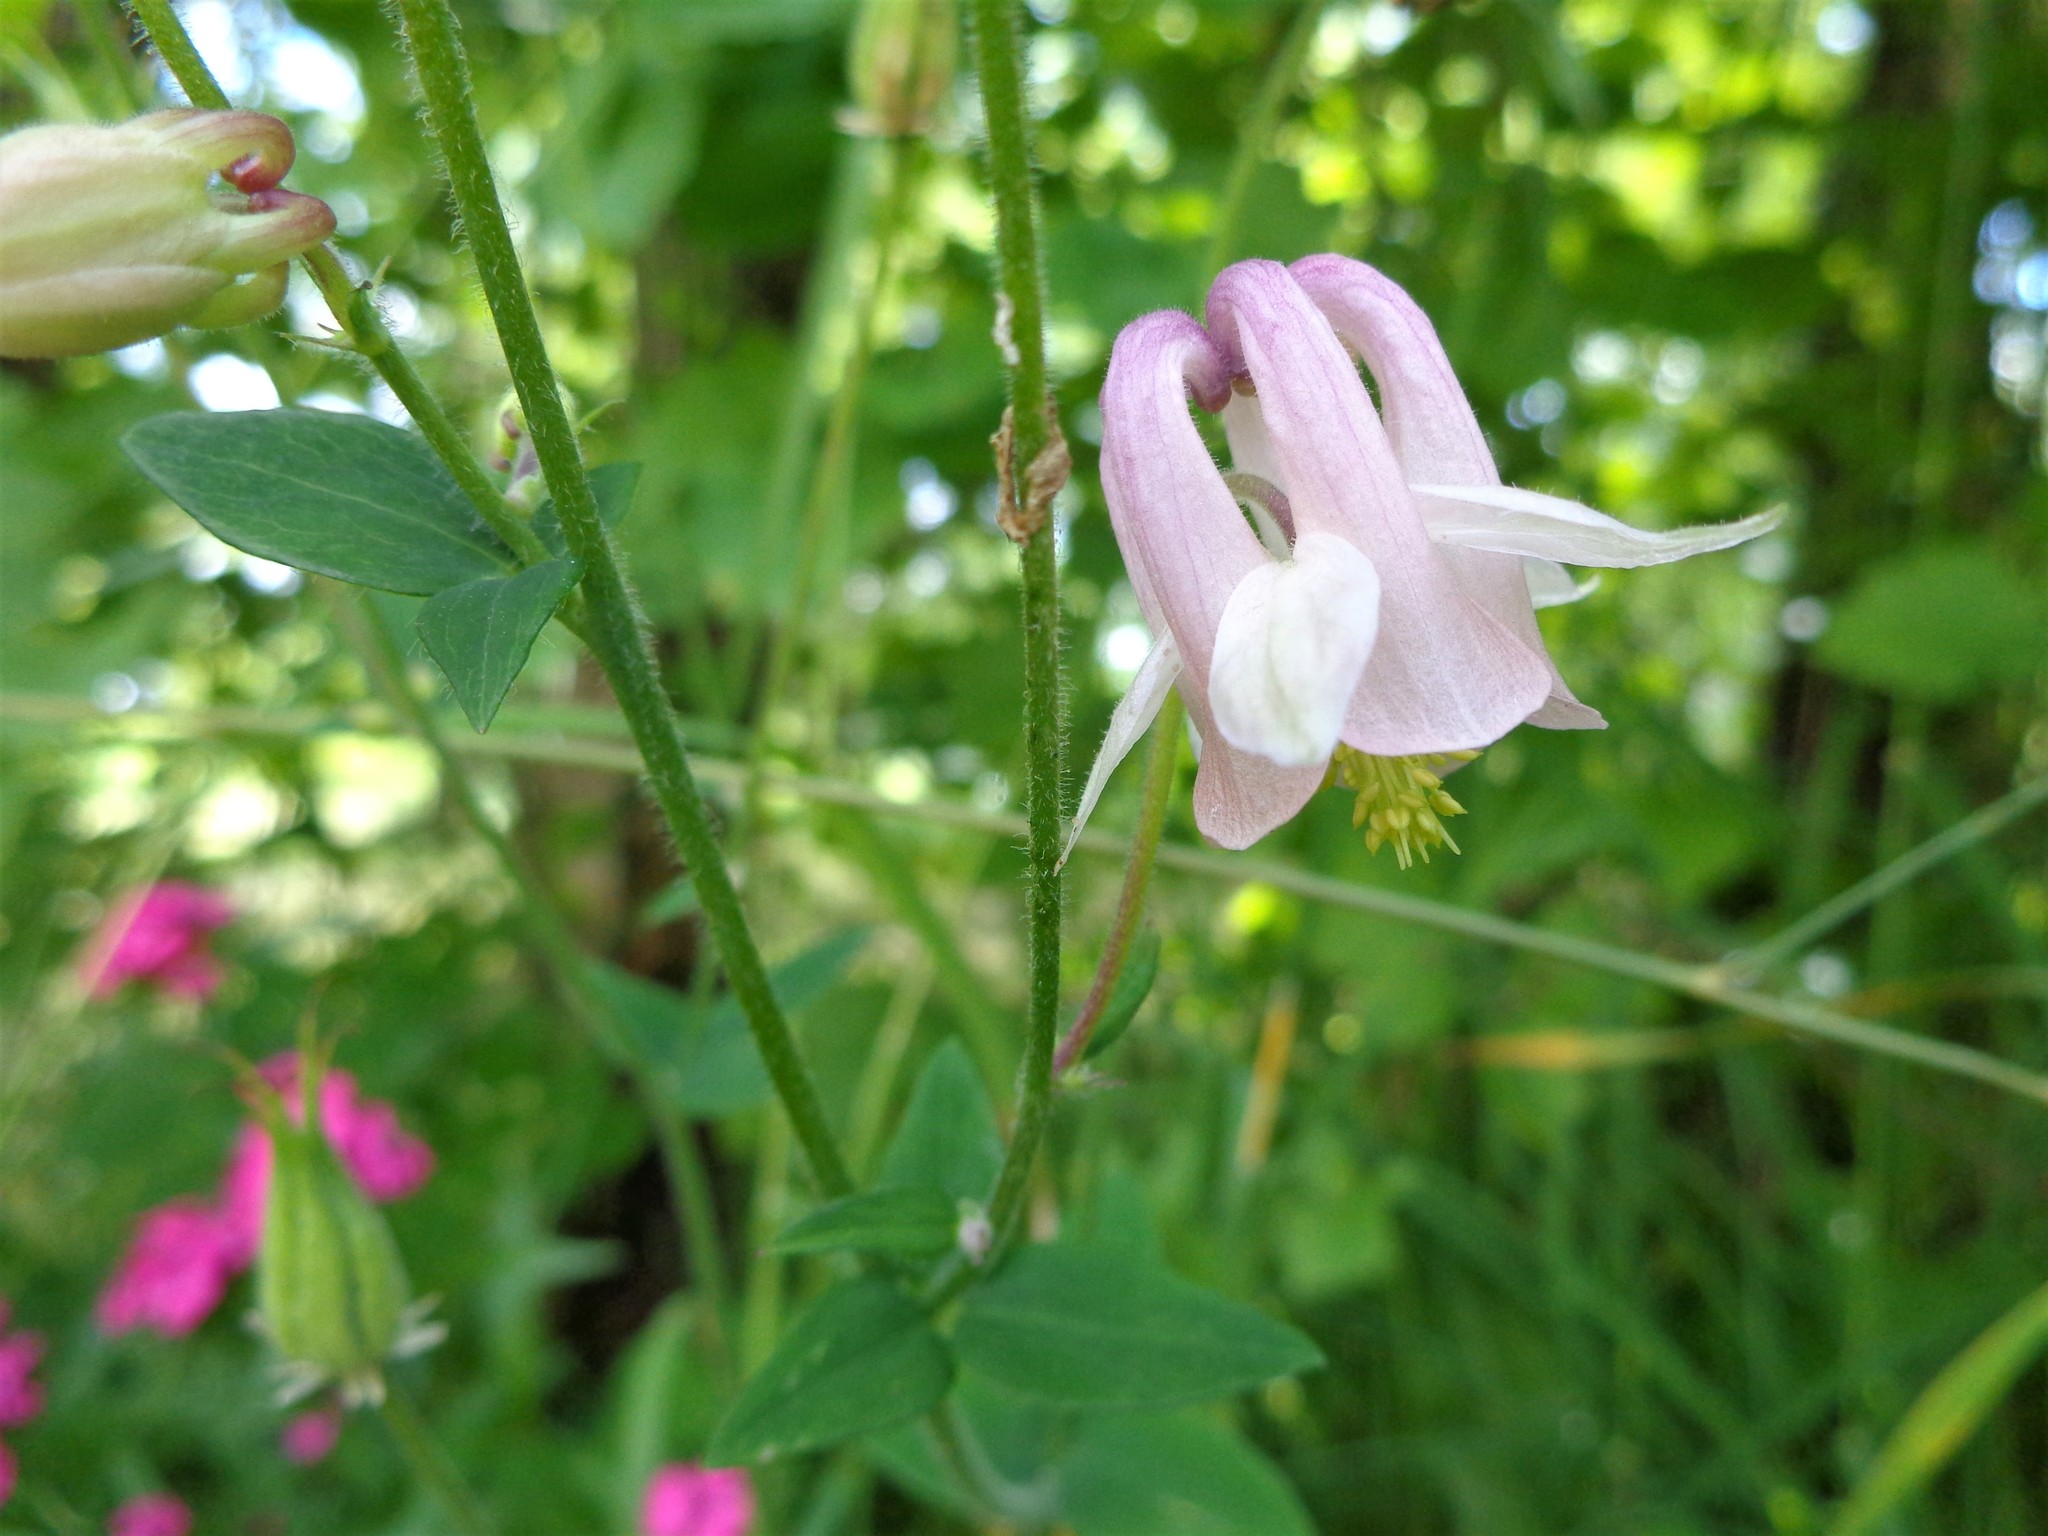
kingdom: Plantae
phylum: Tracheophyta
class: Magnoliopsida
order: Ranunculales
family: Ranunculaceae
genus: Aquilegia
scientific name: Aquilegia vulgaris
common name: Columbine
